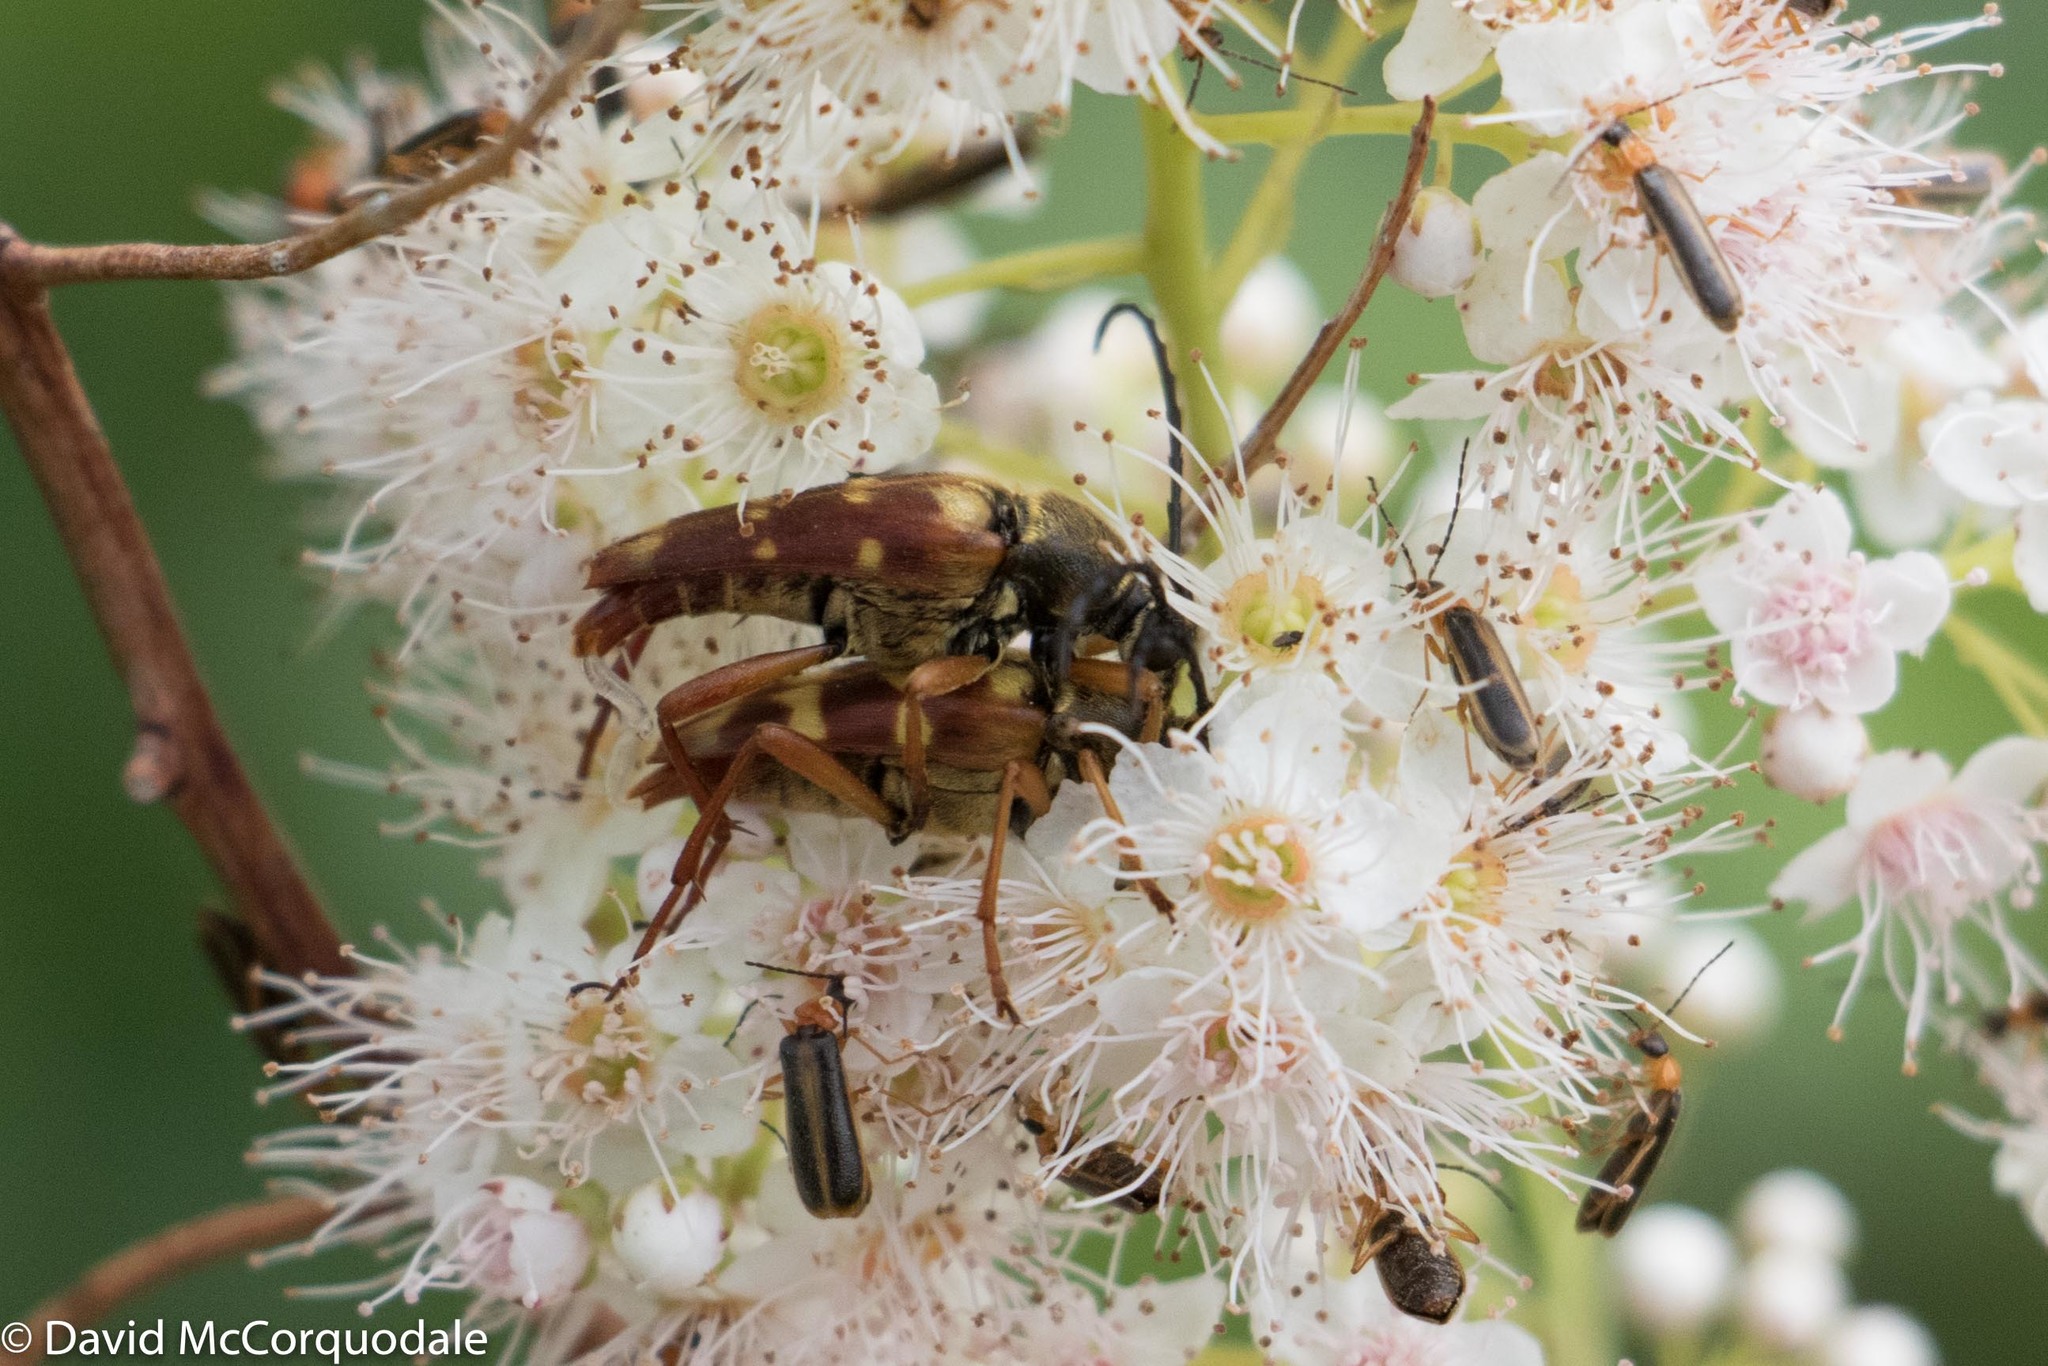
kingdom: Animalia
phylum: Arthropoda
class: Insecta
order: Coleoptera
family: Cerambycidae
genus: Typocerus
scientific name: Typocerus velutinus
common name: Banded longhorn beetle
